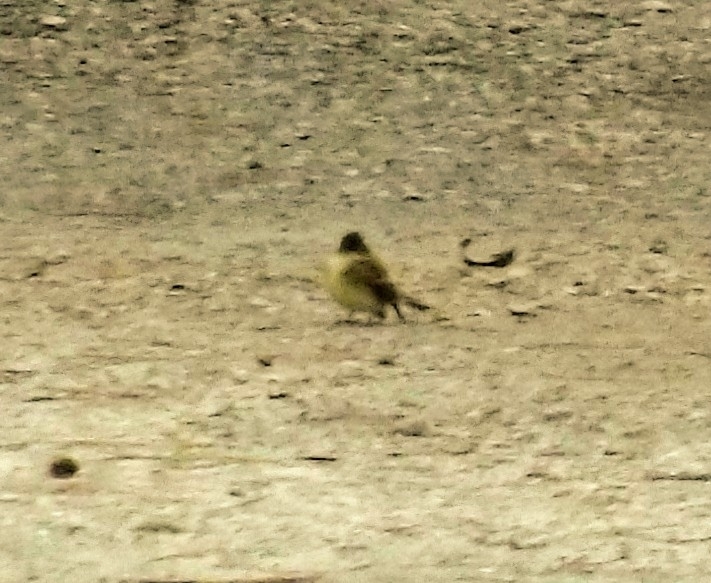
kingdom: Animalia
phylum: Chordata
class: Aves
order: Passeriformes
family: Tyrannidae
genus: Sayornis
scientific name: Sayornis phoebe
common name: Eastern phoebe
